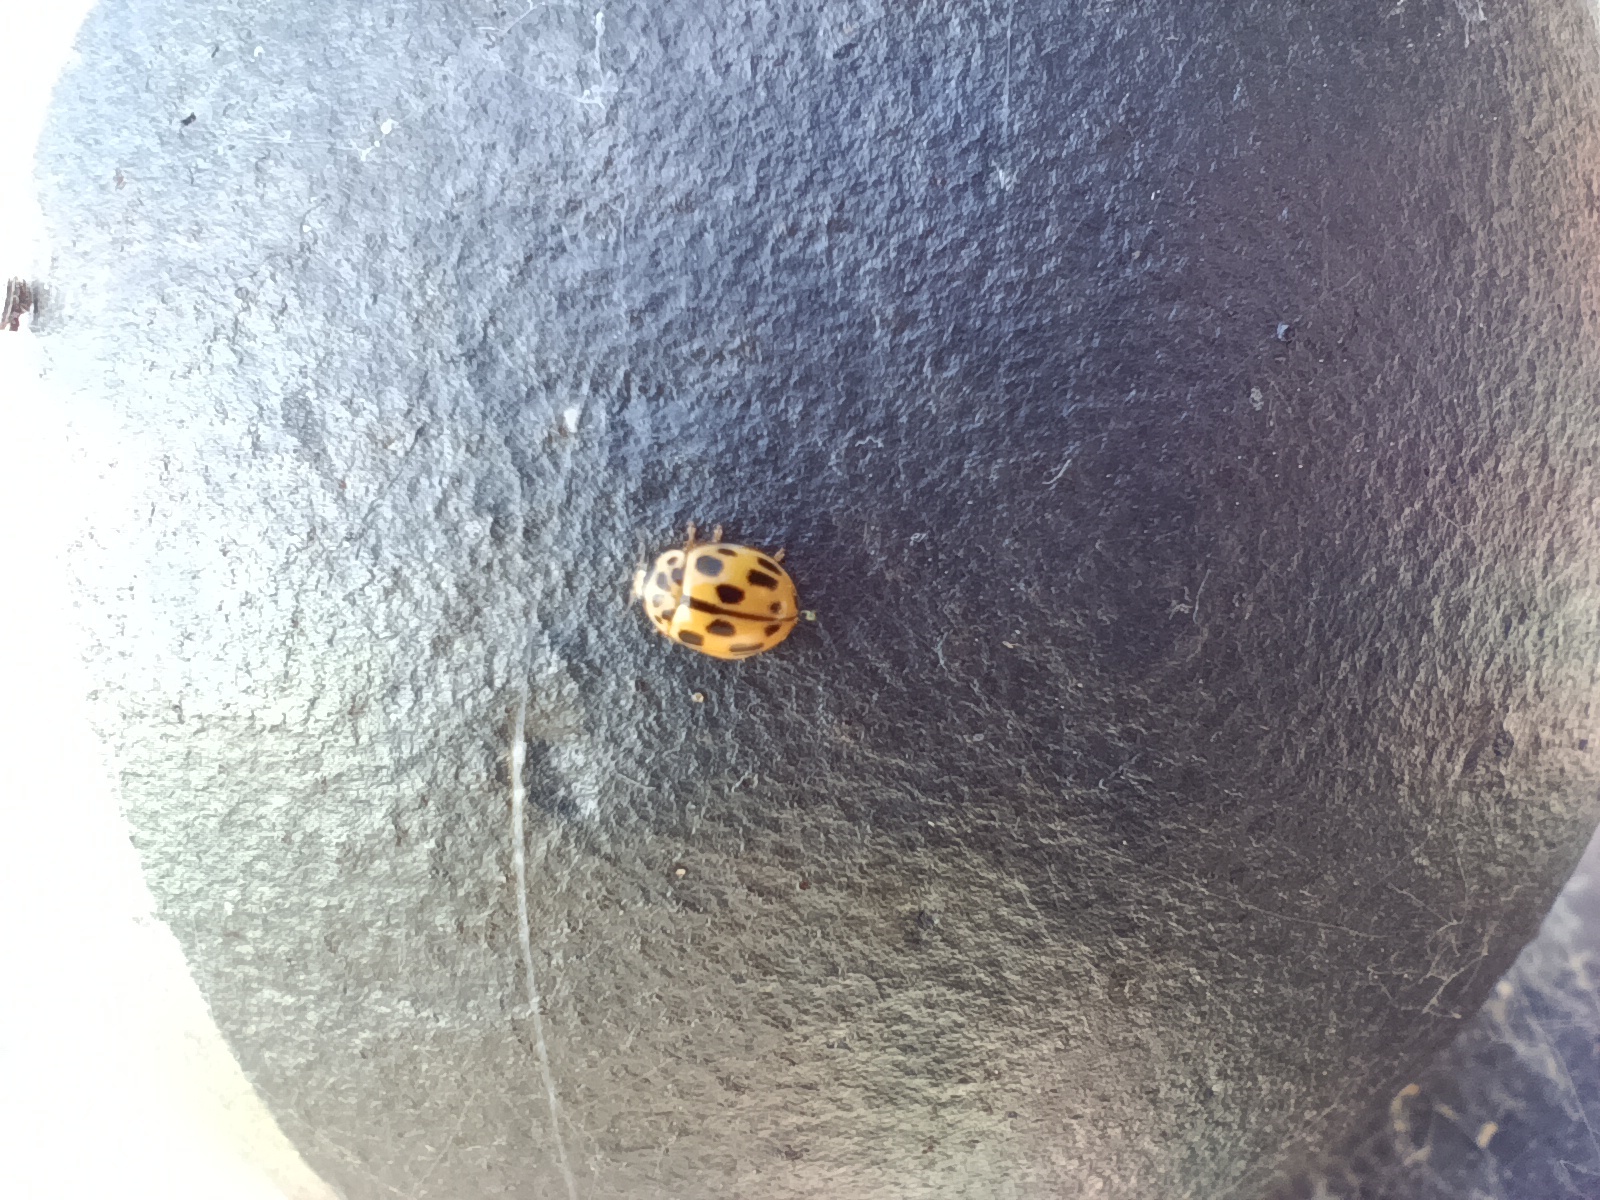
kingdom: Animalia
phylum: Arthropoda
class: Insecta
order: Coleoptera
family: Coccinellidae
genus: Propylaea
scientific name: Propylaea quatuordecimpunctata
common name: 14-spotted ladybird beetle
